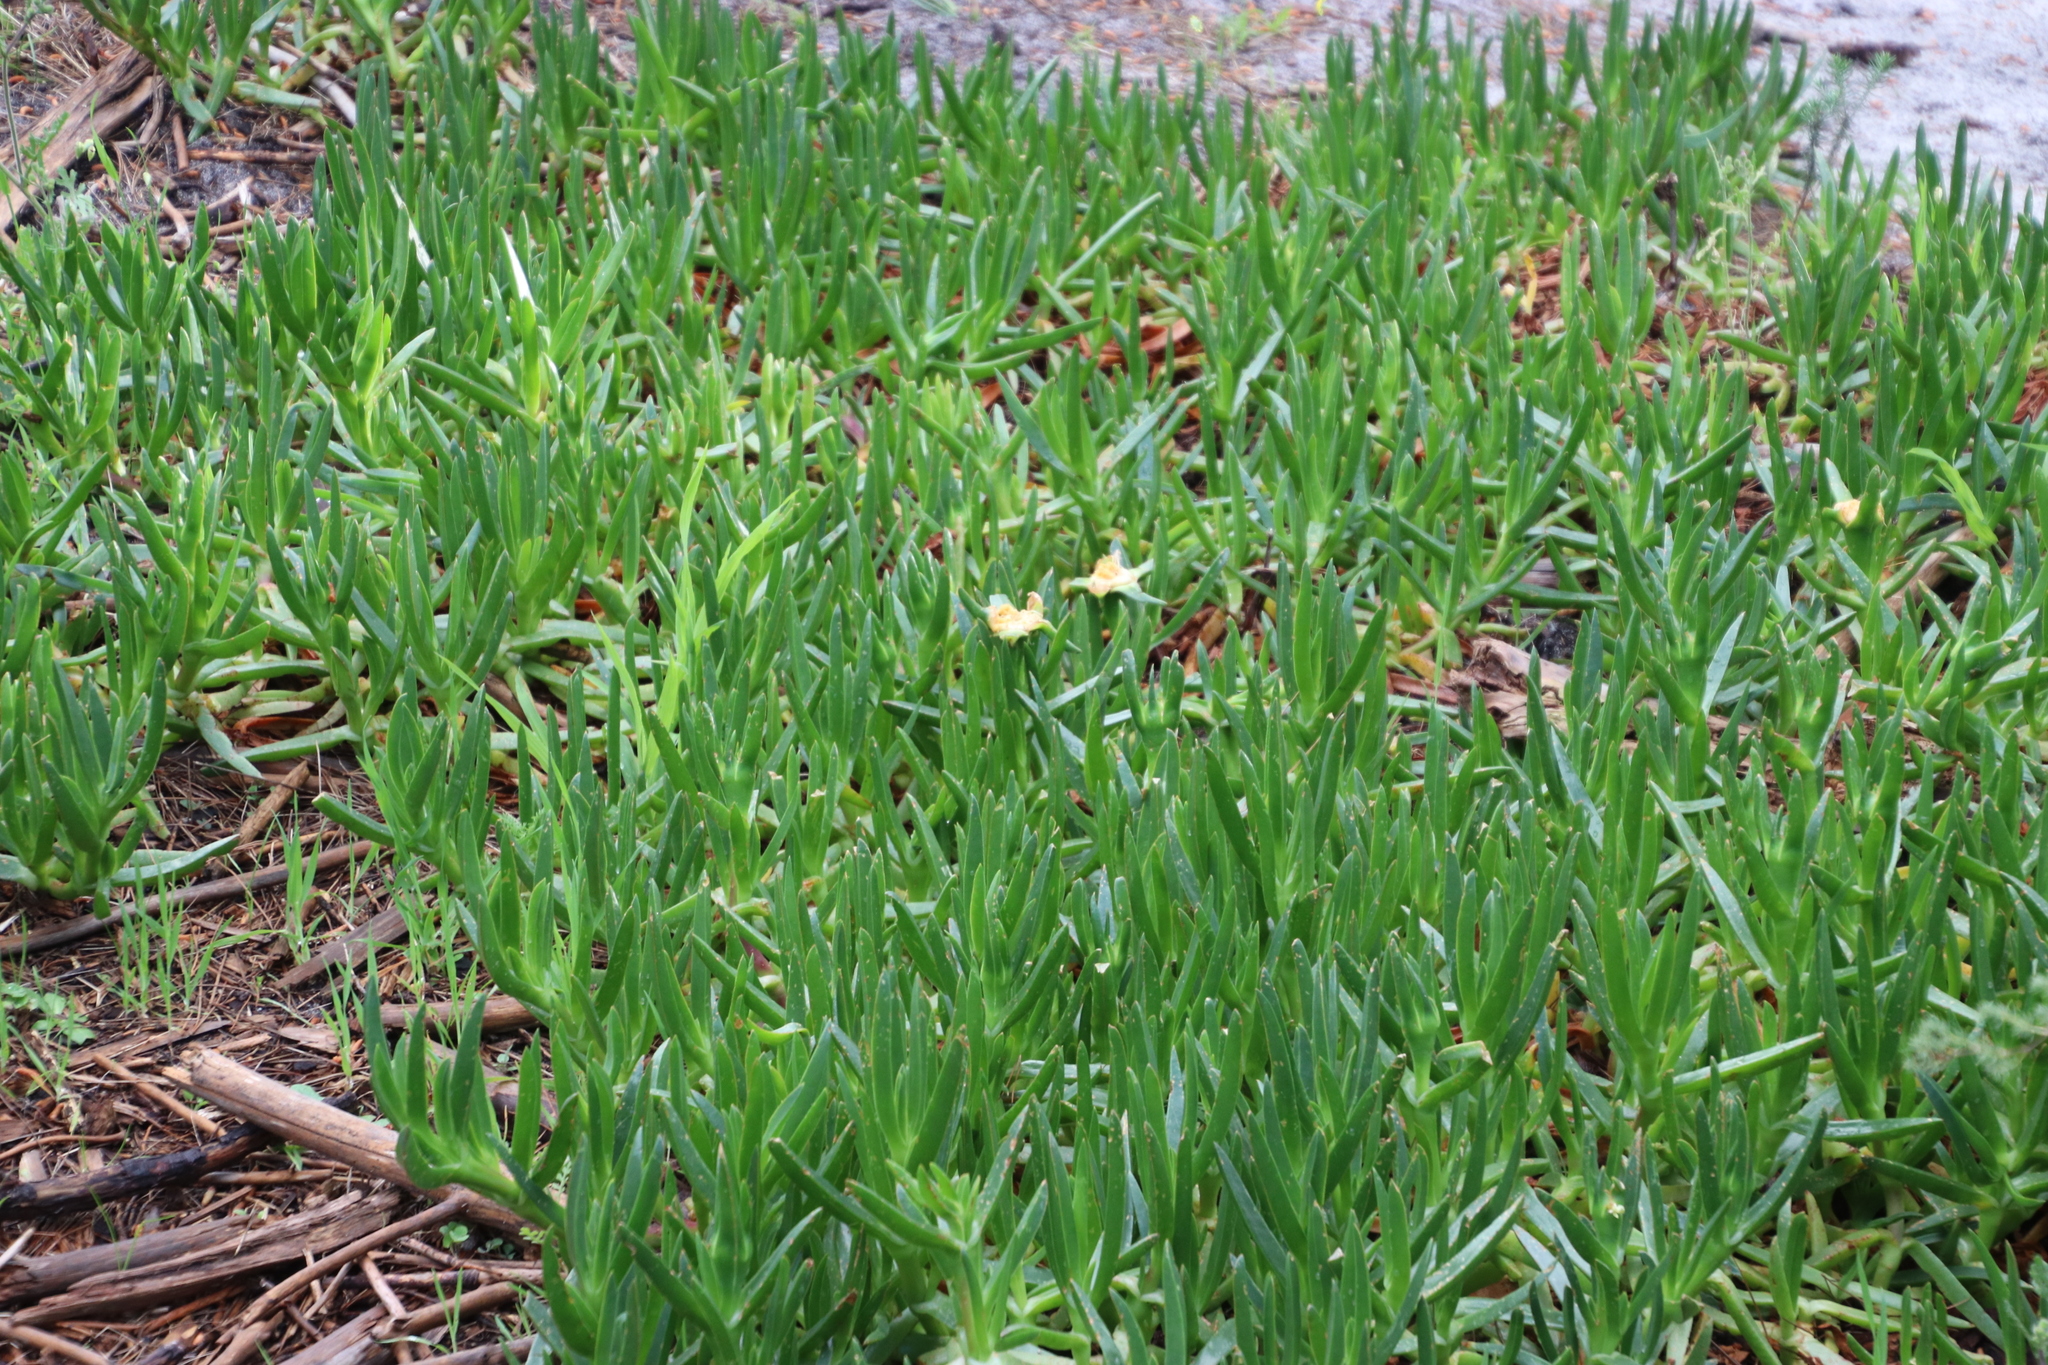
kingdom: Plantae
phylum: Tracheophyta
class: Magnoliopsida
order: Caryophyllales
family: Aizoaceae
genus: Carpobrotus
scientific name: Carpobrotus edulis
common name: Hottentot-fig
